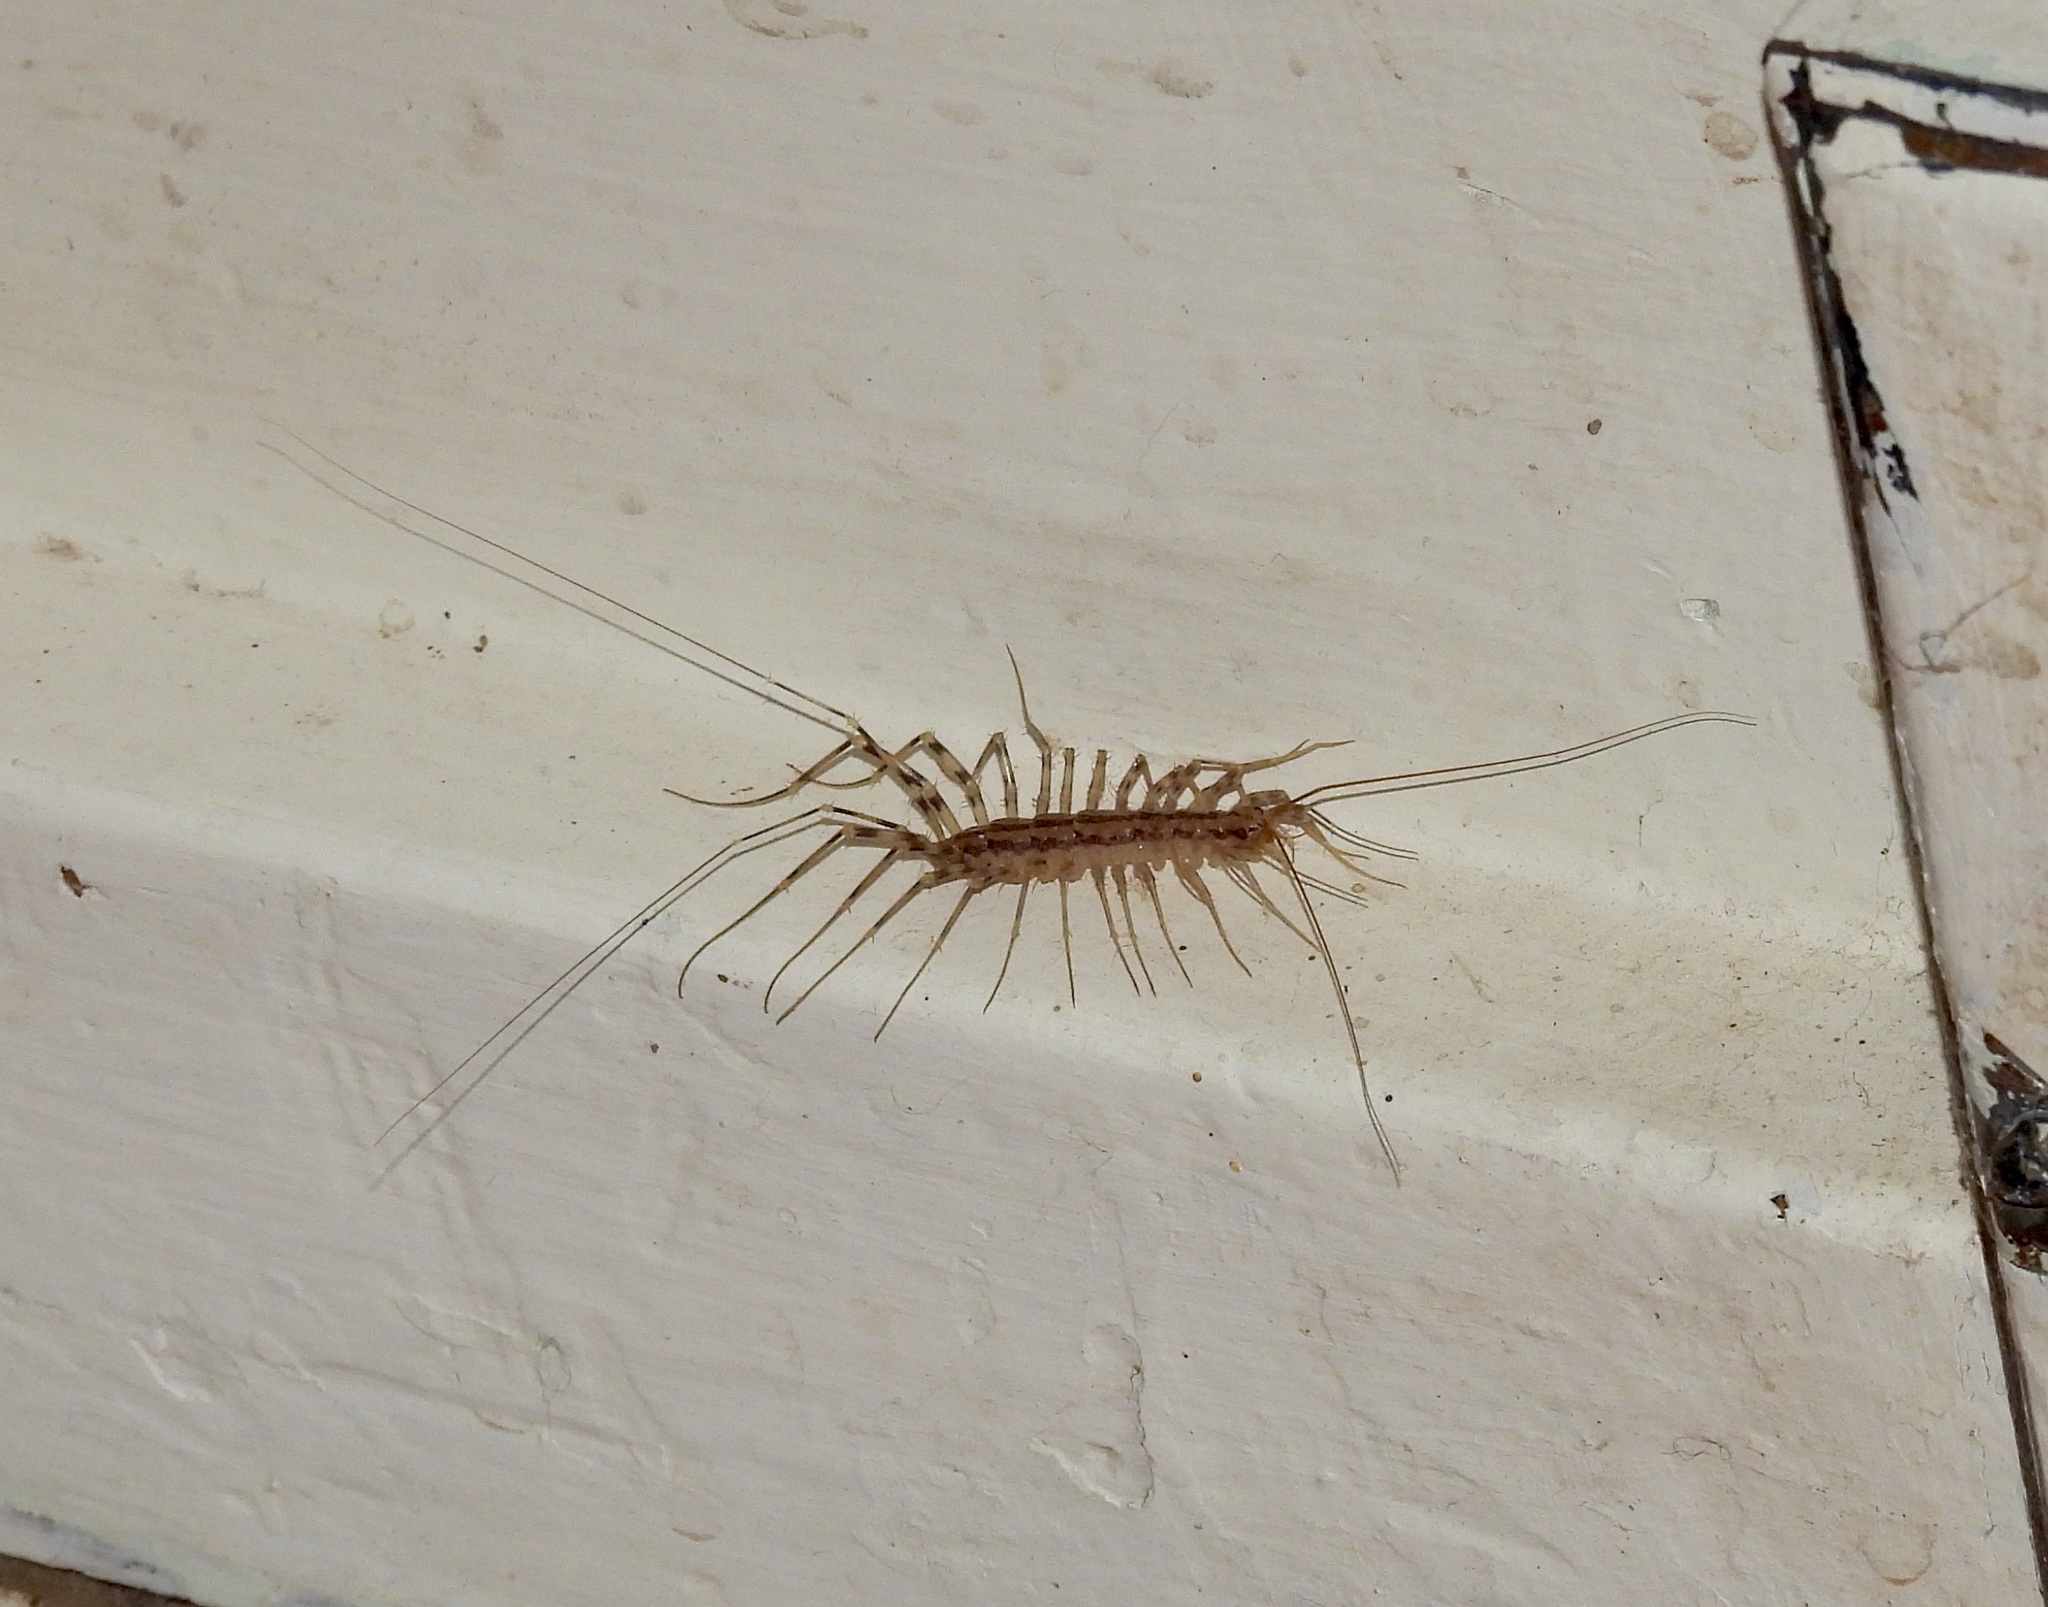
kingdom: Animalia
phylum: Arthropoda
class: Chilopoda
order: Scutigeromorpha
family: Scutigeridae
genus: Scutigera
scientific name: Scutigera coleoptrata
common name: House centipede
